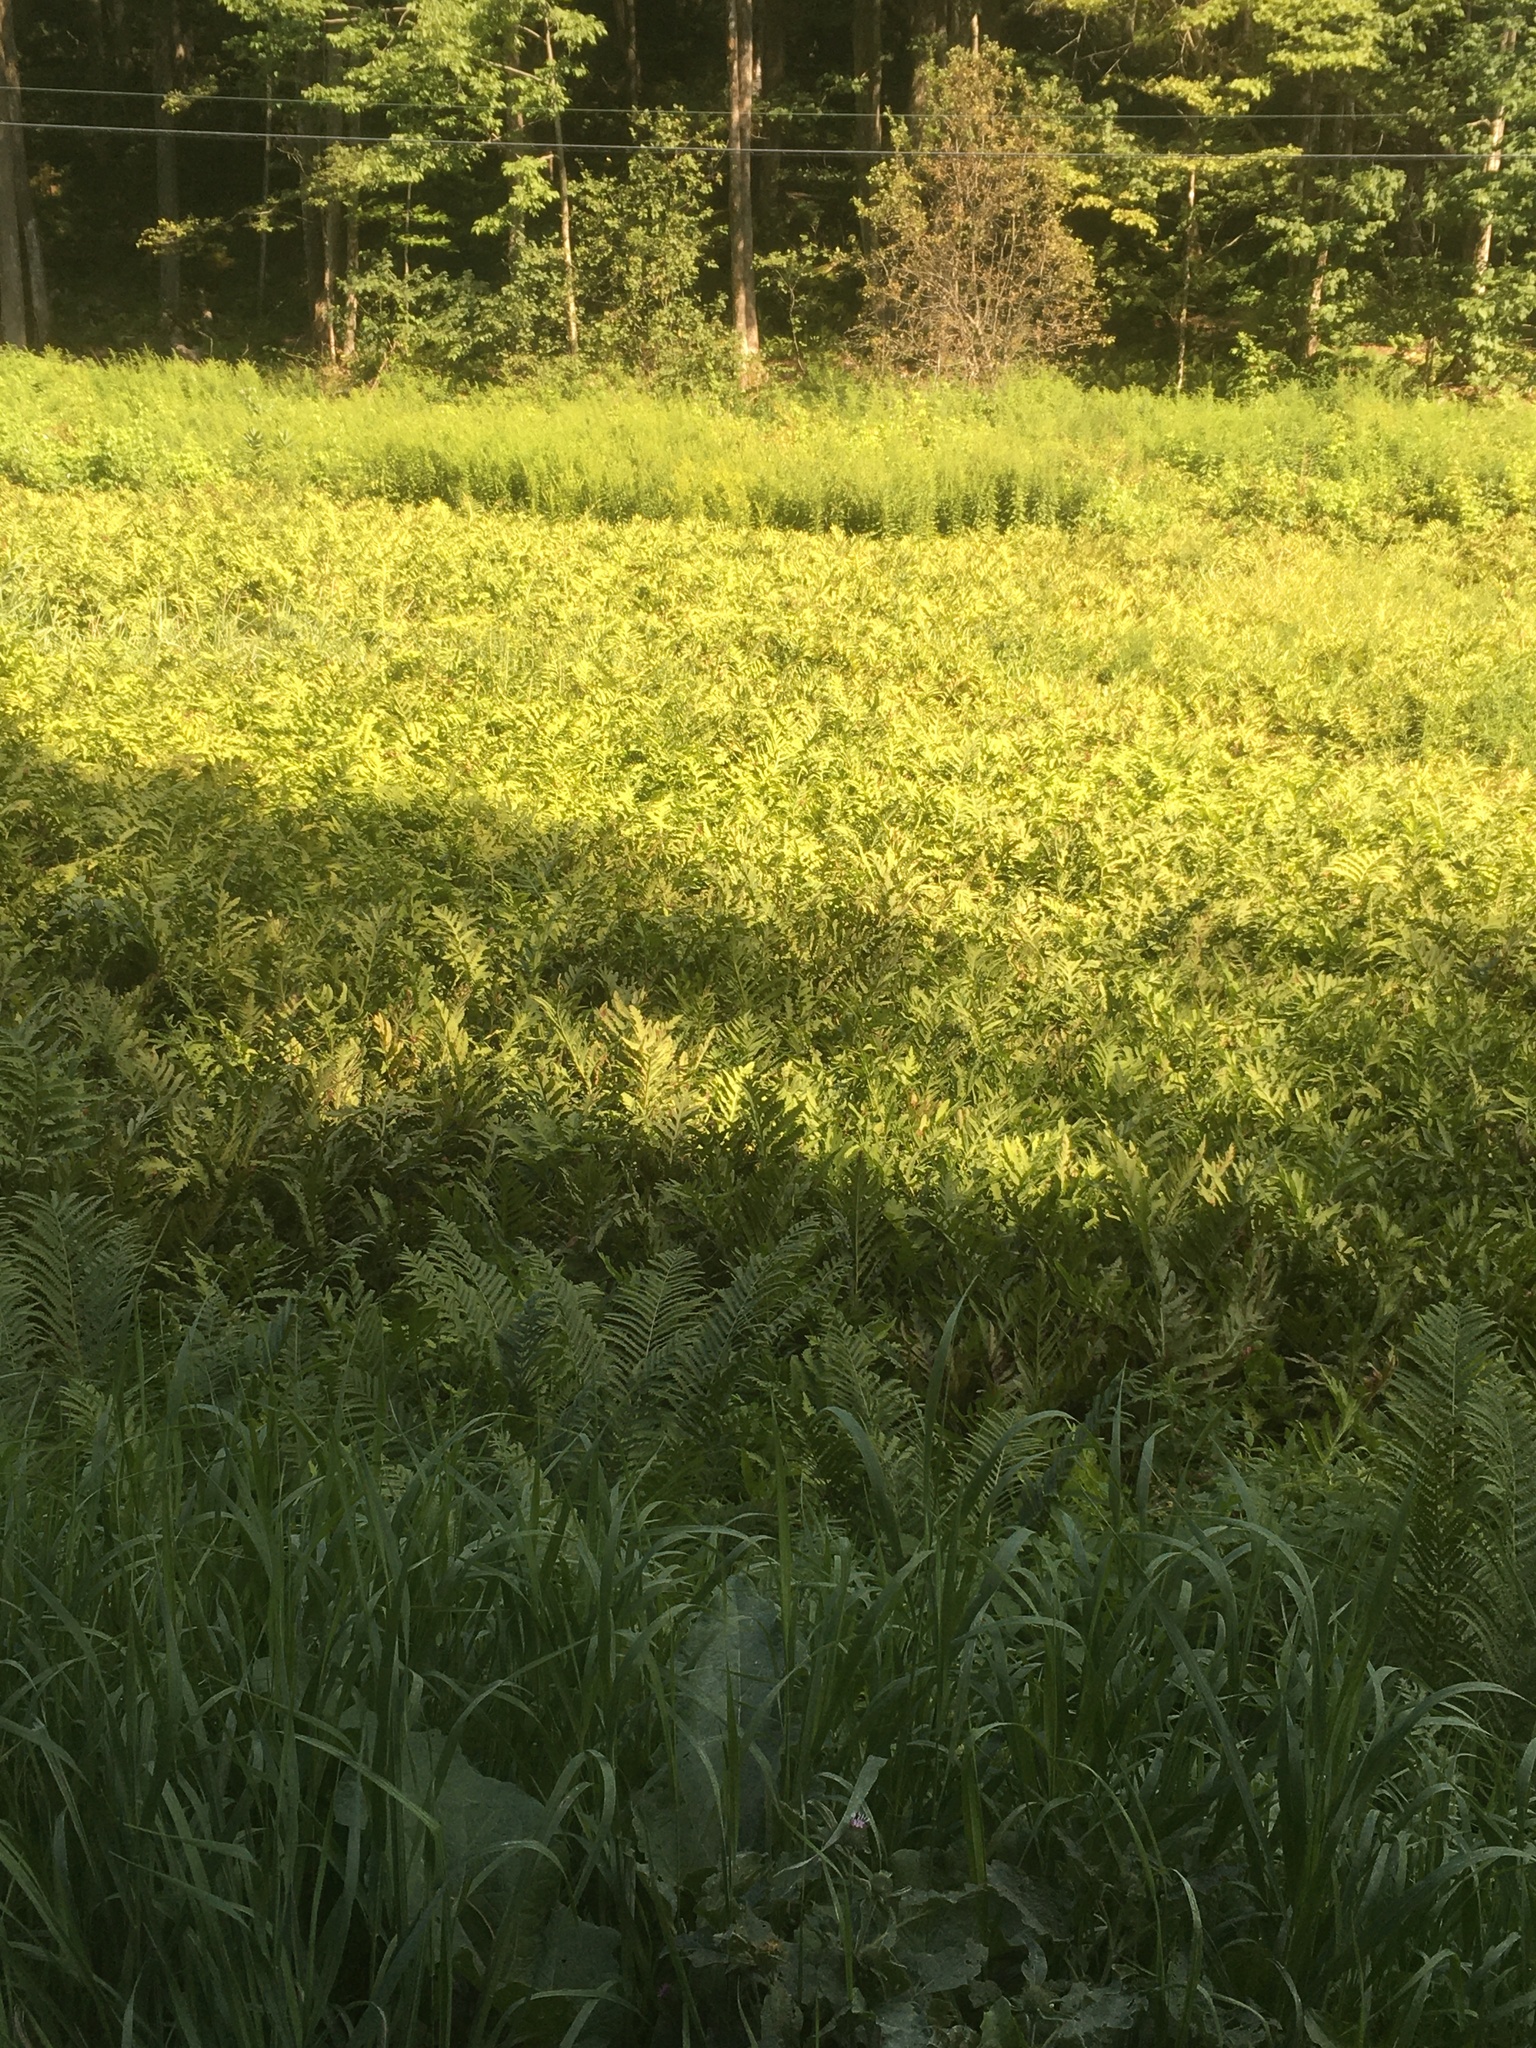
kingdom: Plantae
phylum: Tracheophyta
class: Polypodiopsida
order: Polypodiales
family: Onocleaceae
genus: Onoclea
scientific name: Onoclea sensibilis
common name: Sensitive fern
